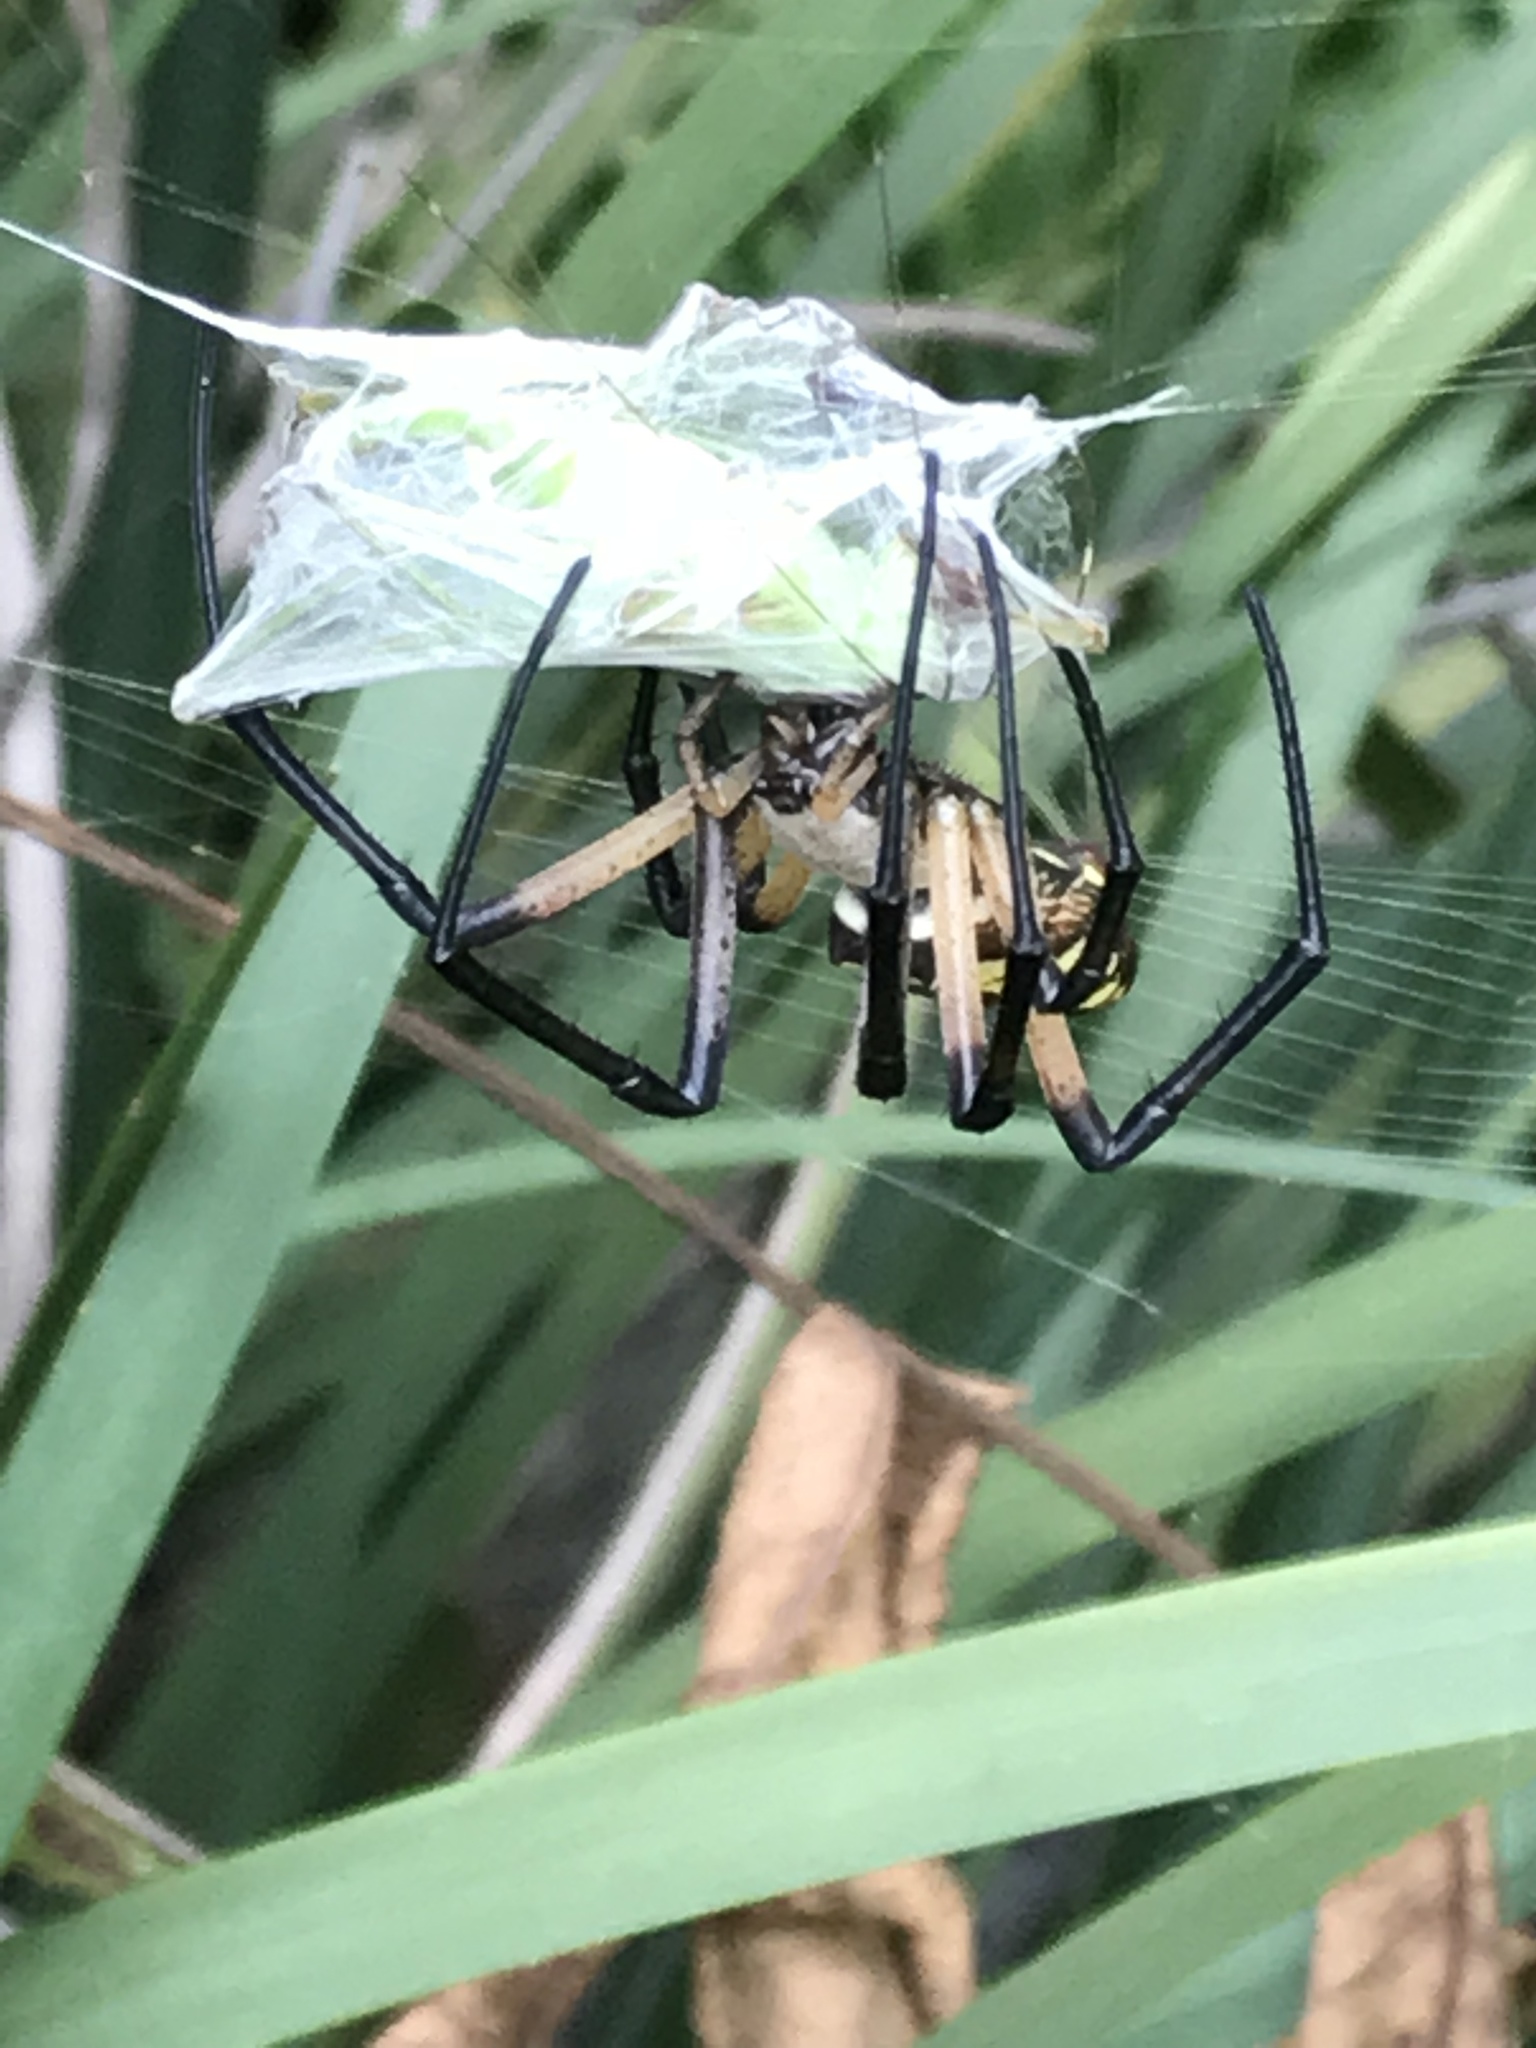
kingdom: Animalia
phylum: Arthropoda
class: Arachnida
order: Araneae
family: Araneidae
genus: Argiope
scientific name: Argiope aurantia
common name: Orb weavers
